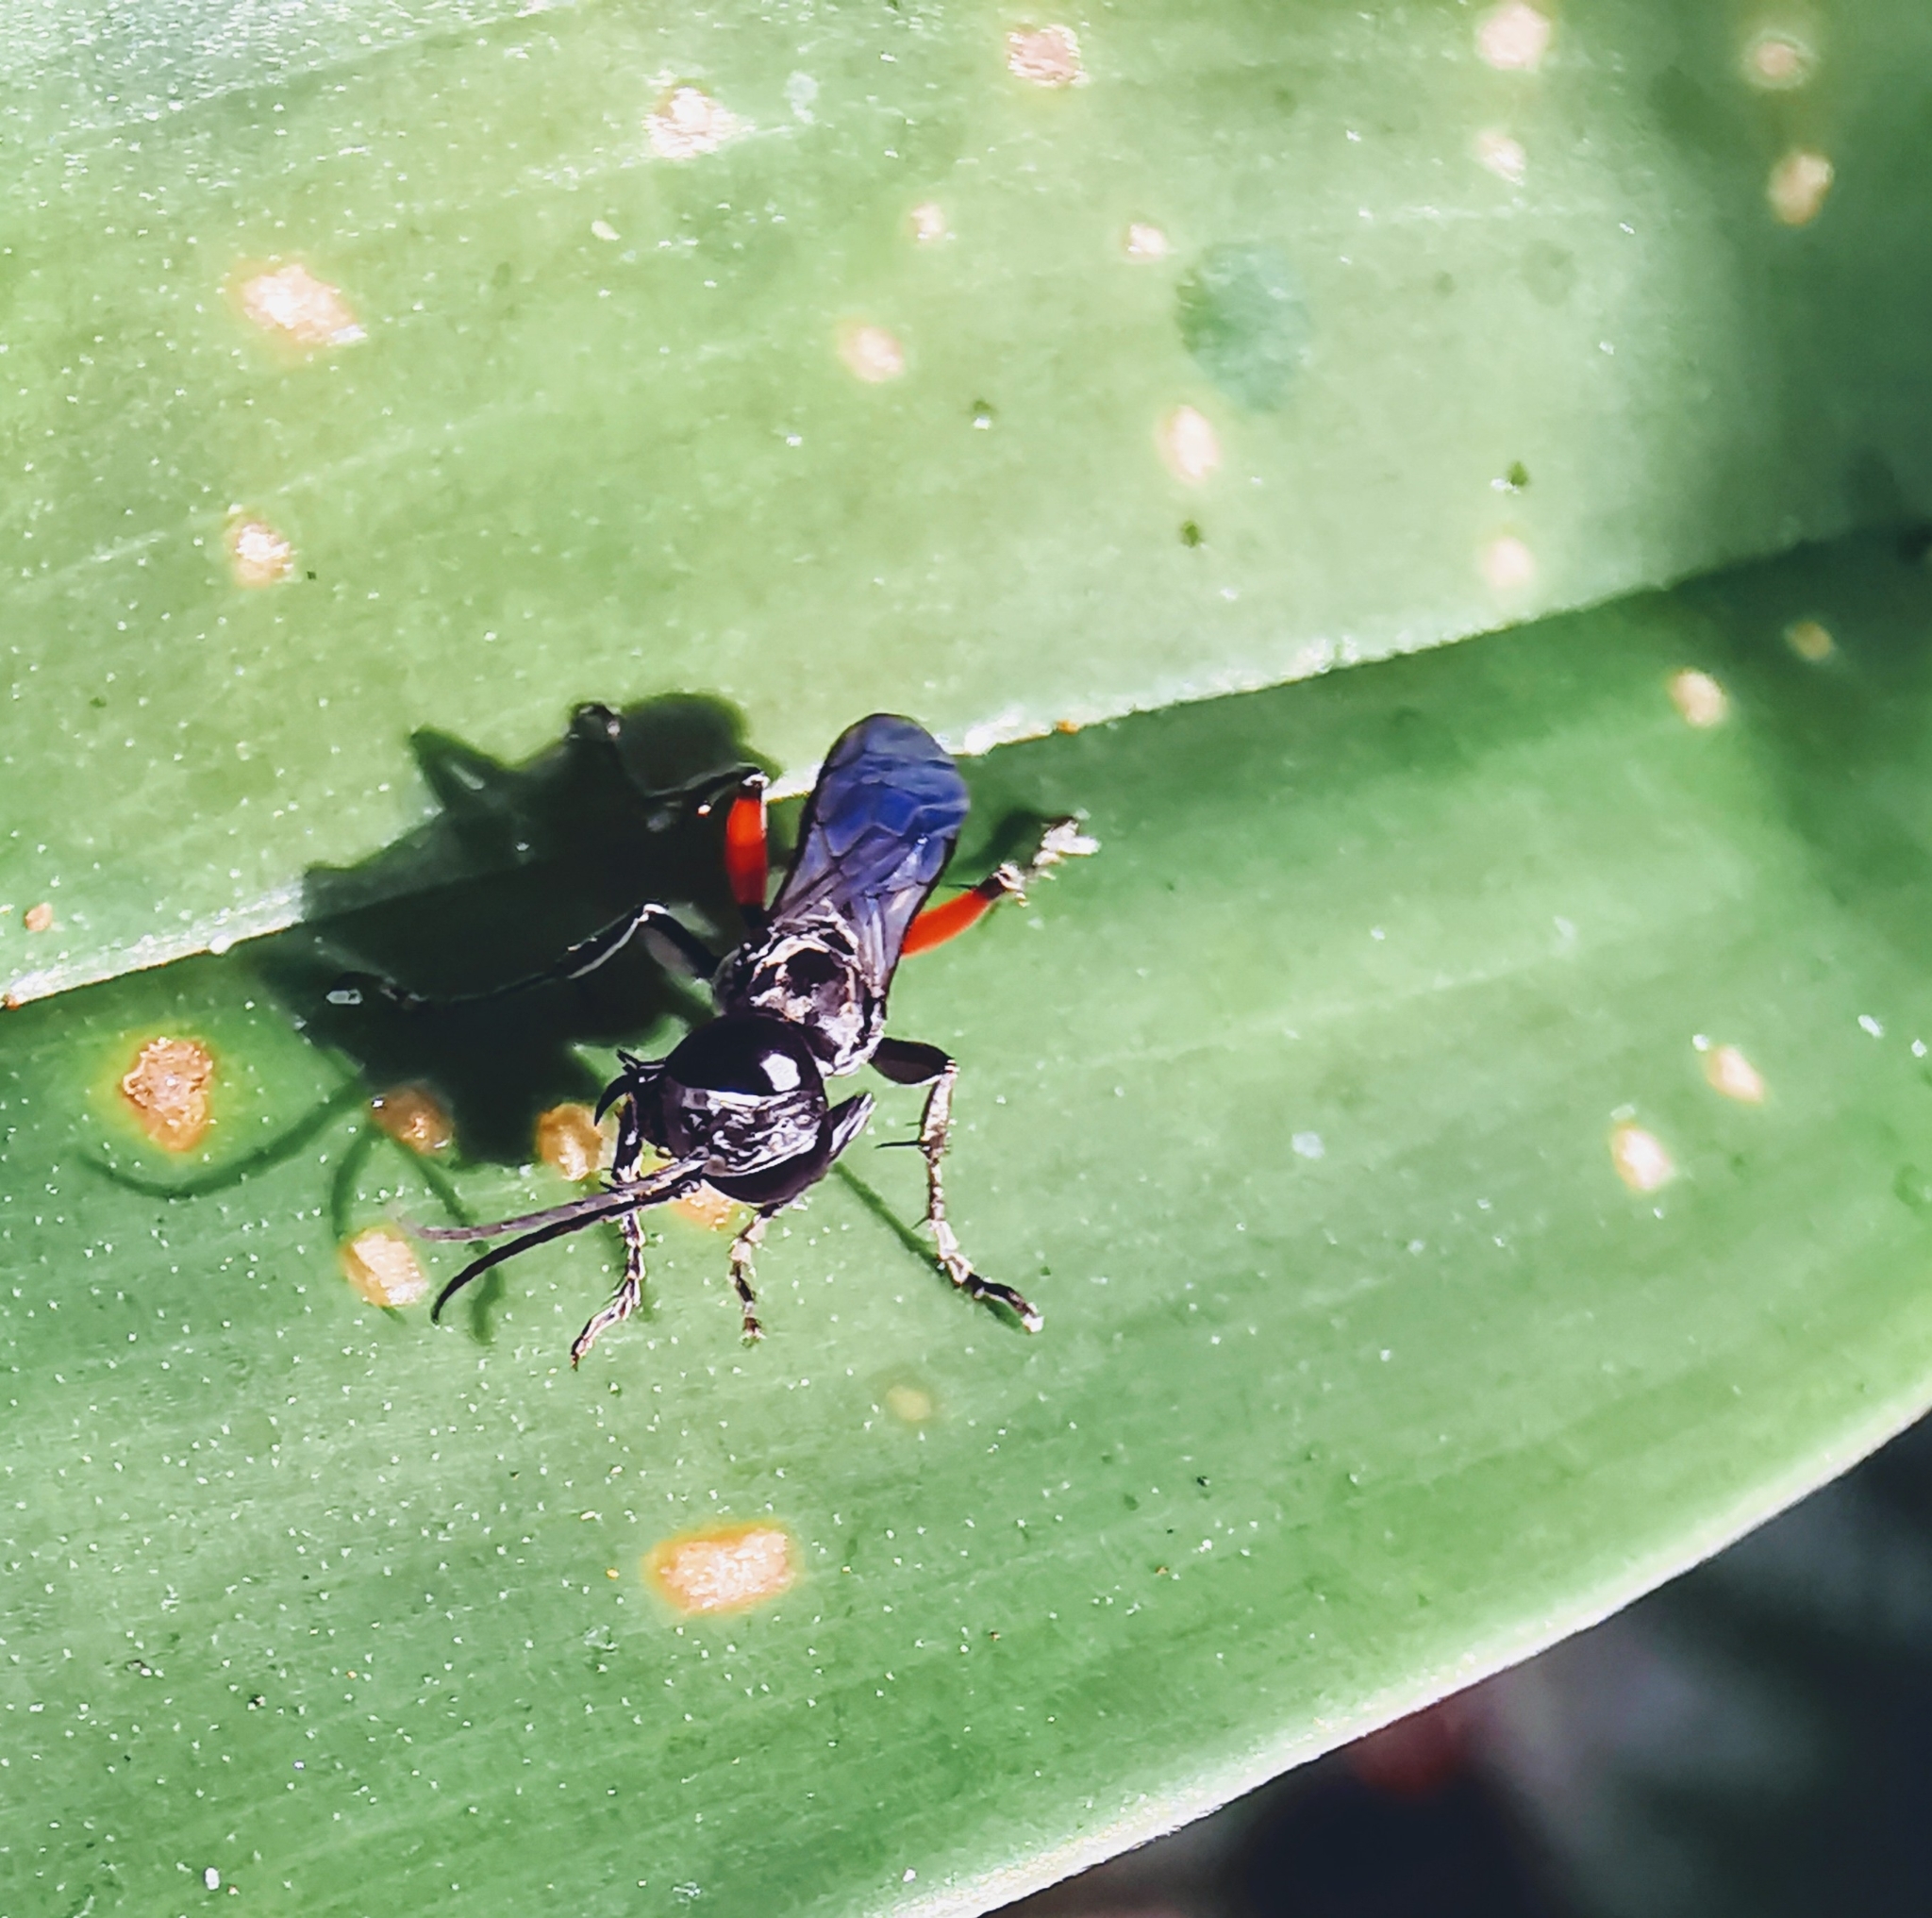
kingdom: Animalia
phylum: Arthropoda
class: Insecta
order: Hymenoptera
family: Crabronidae
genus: Liris
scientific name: Liris subtessellatus
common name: Crabronid wasp
